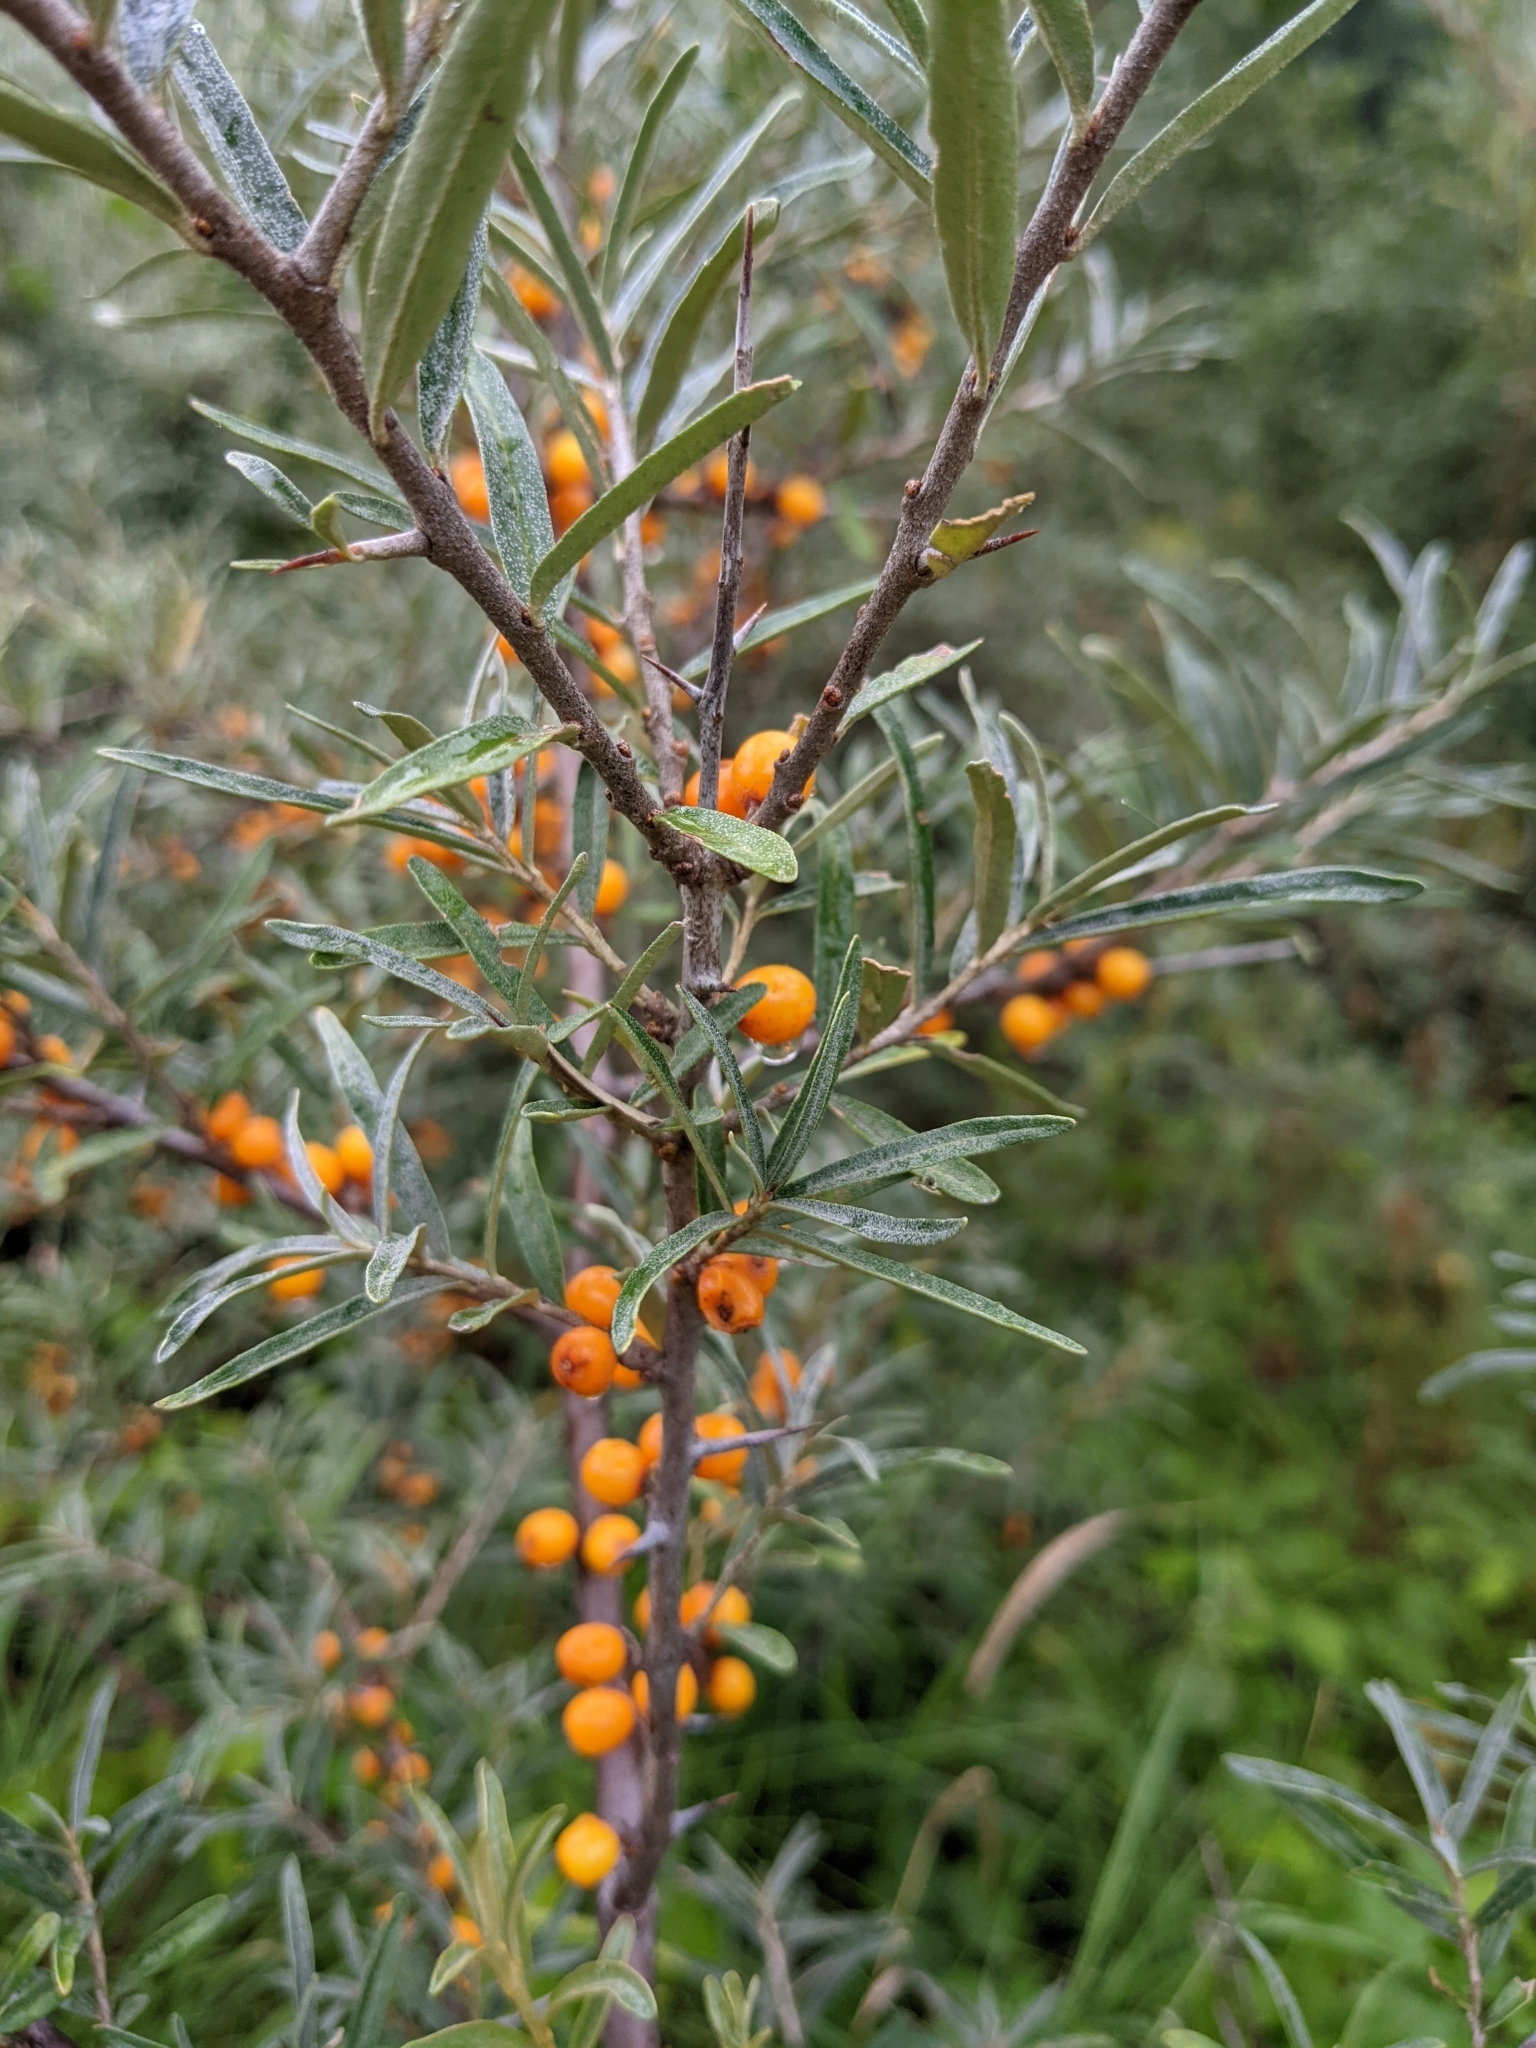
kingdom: Plantae
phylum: Tracheophyta
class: Magnoliopsida
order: Rosales
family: Elaeagnaceae
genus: Hippophae
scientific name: Hippophae rhamnoides
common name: Sea-buckthorn
